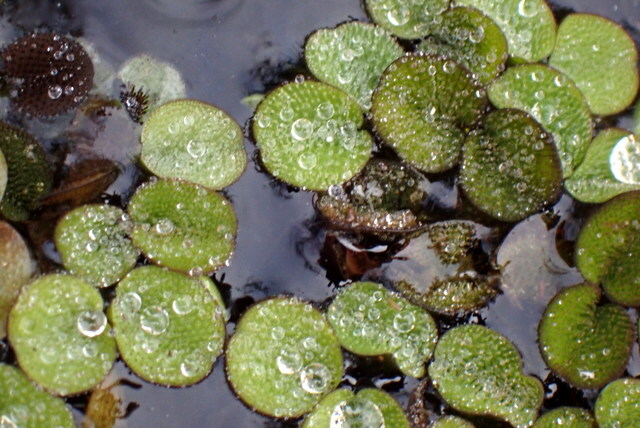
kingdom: Plantae
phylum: Tracheophyta
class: Polypodiopsida
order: Salviniales
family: Salviniaceae
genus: Salvinia
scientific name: Salvinia minima
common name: Water spangles
